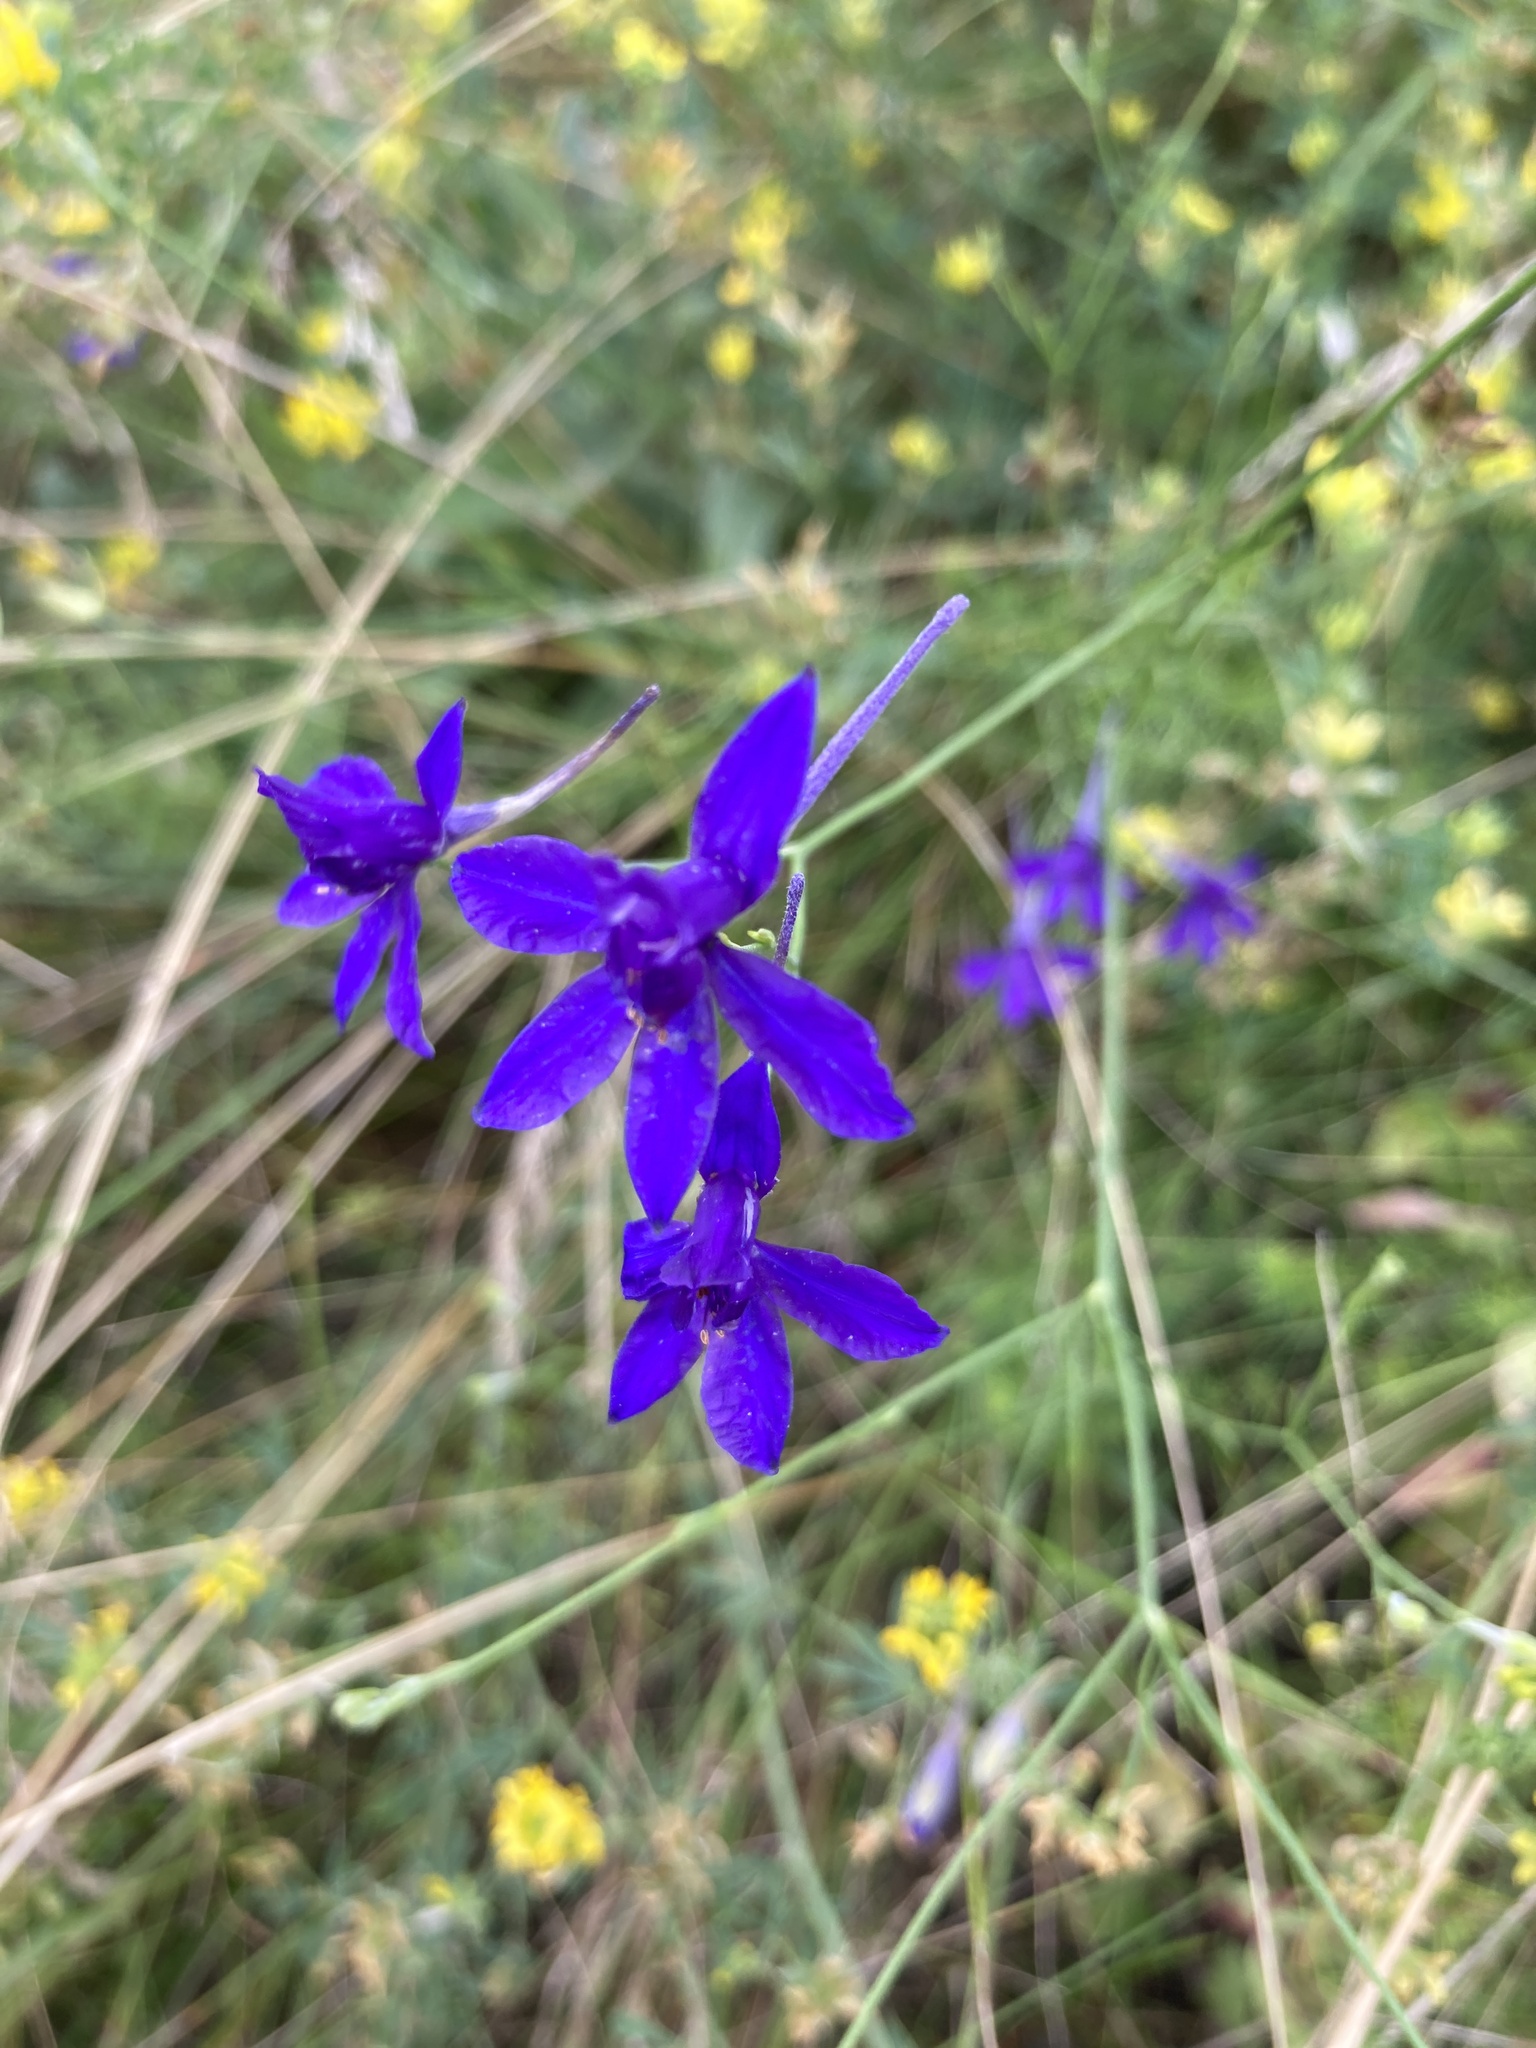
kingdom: Plantae
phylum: Tracheophyta
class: Magnoliopsida
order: Ranunculales
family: Ranunculaceae
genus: Delphinium
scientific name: Delphinium consolida
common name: Branching larkspur
